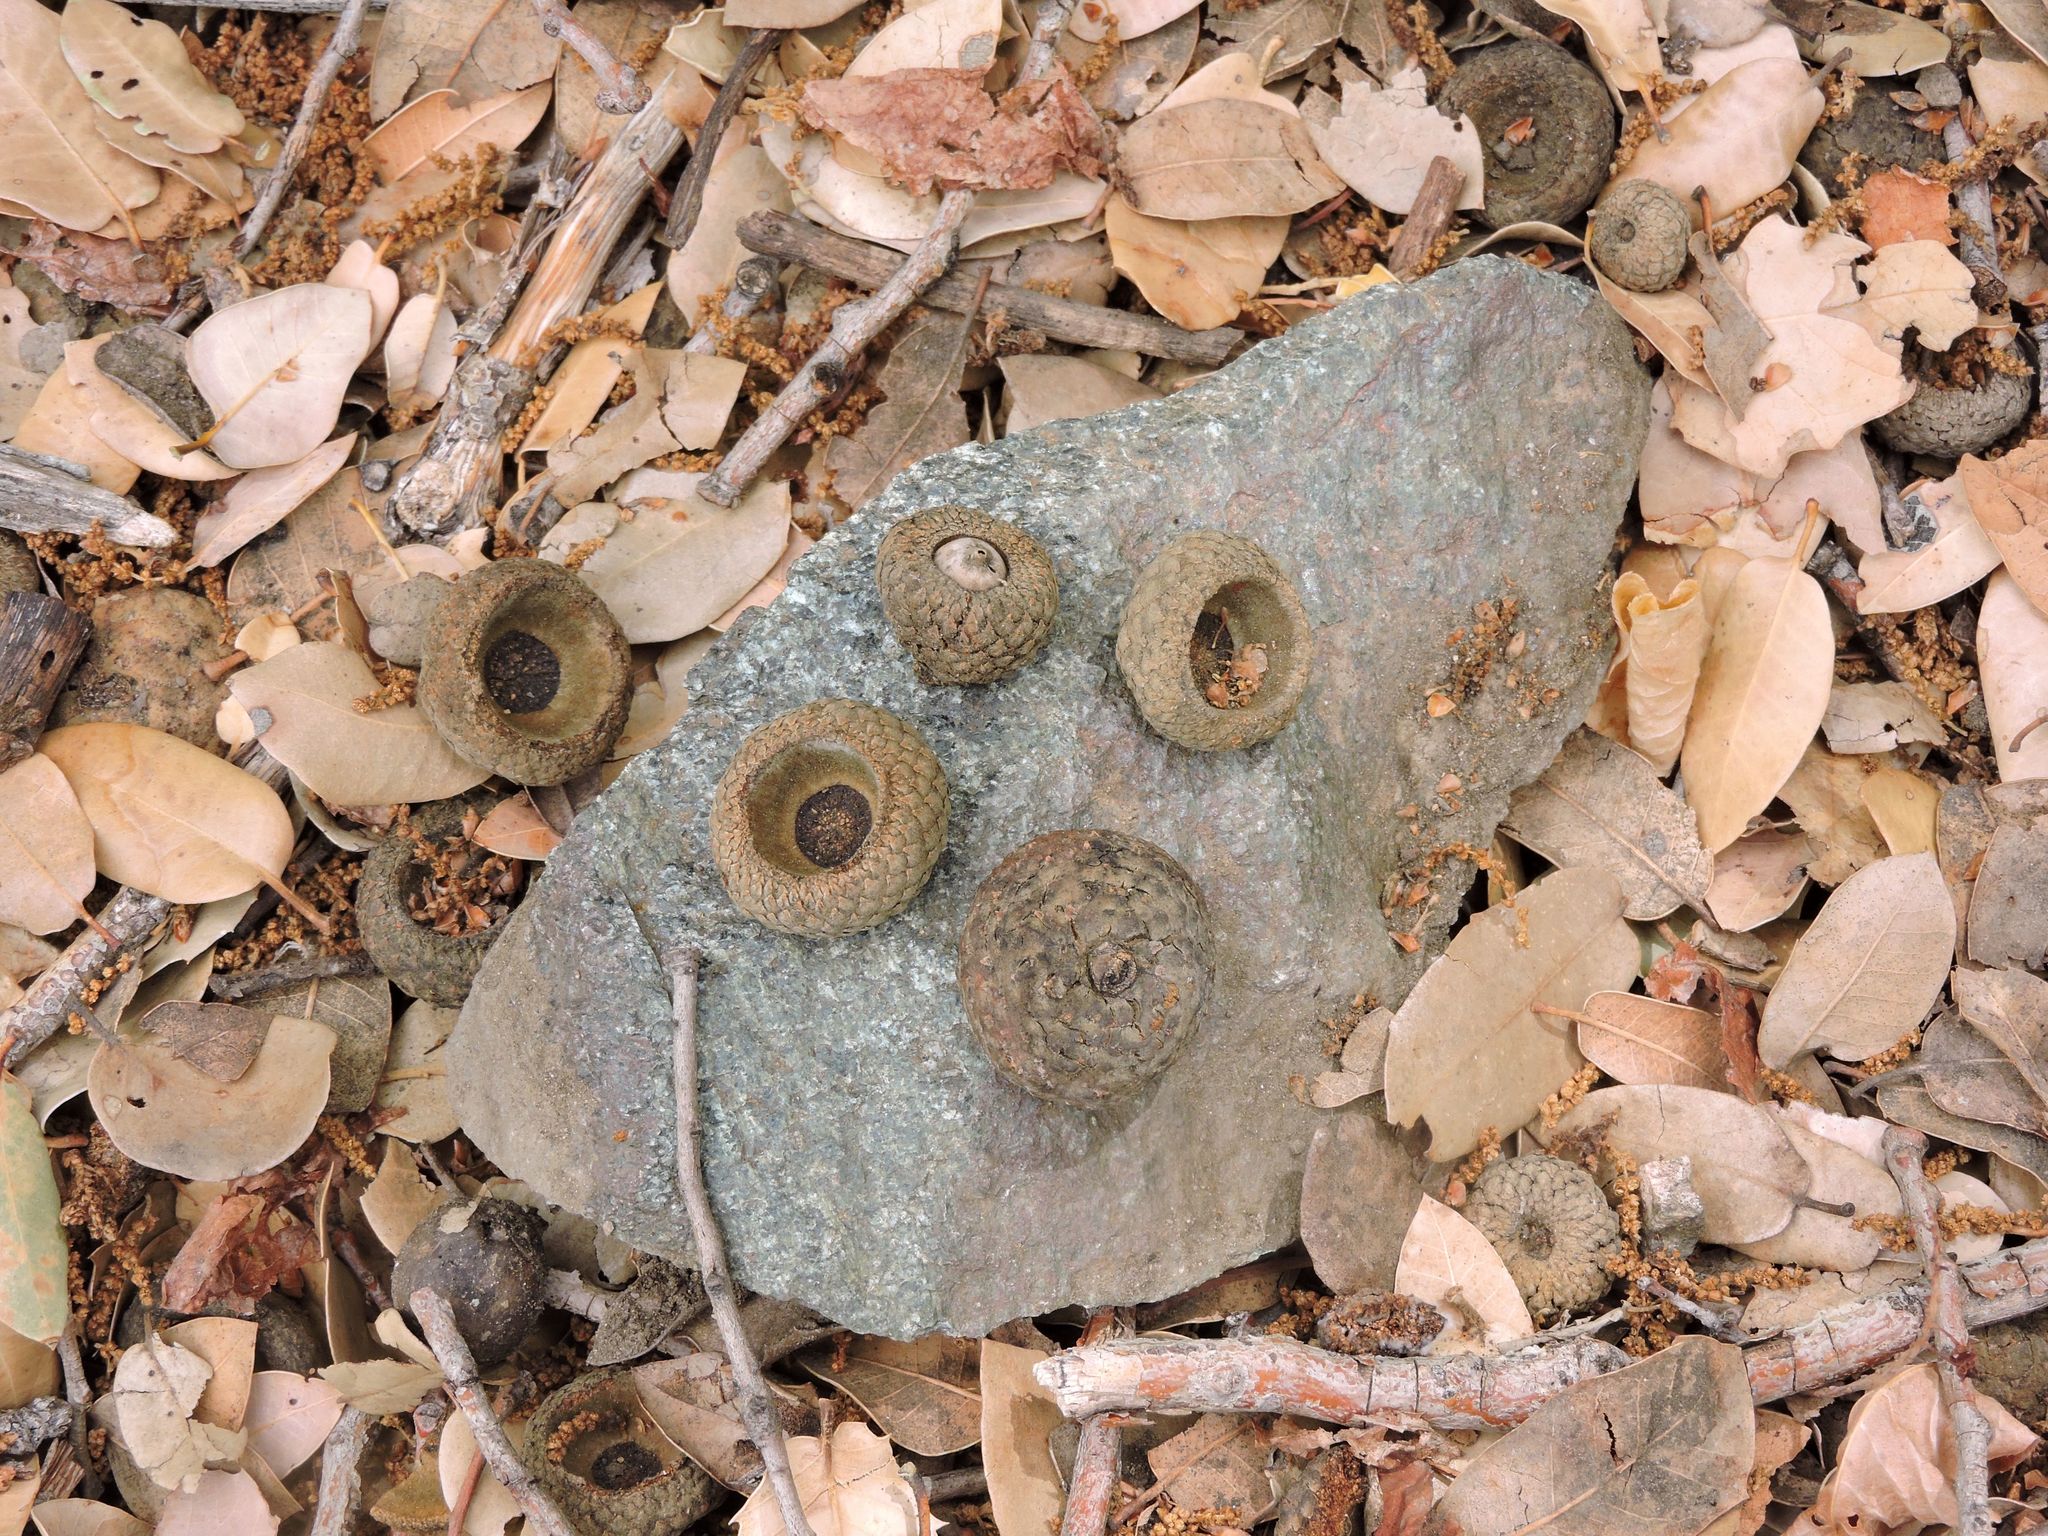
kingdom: Plantae
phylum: Tracheophyta
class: Magnoliopsida
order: Fagales
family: Fagaceae
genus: Quercus
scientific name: Quercus chrysolepis
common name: Canyon live oak
